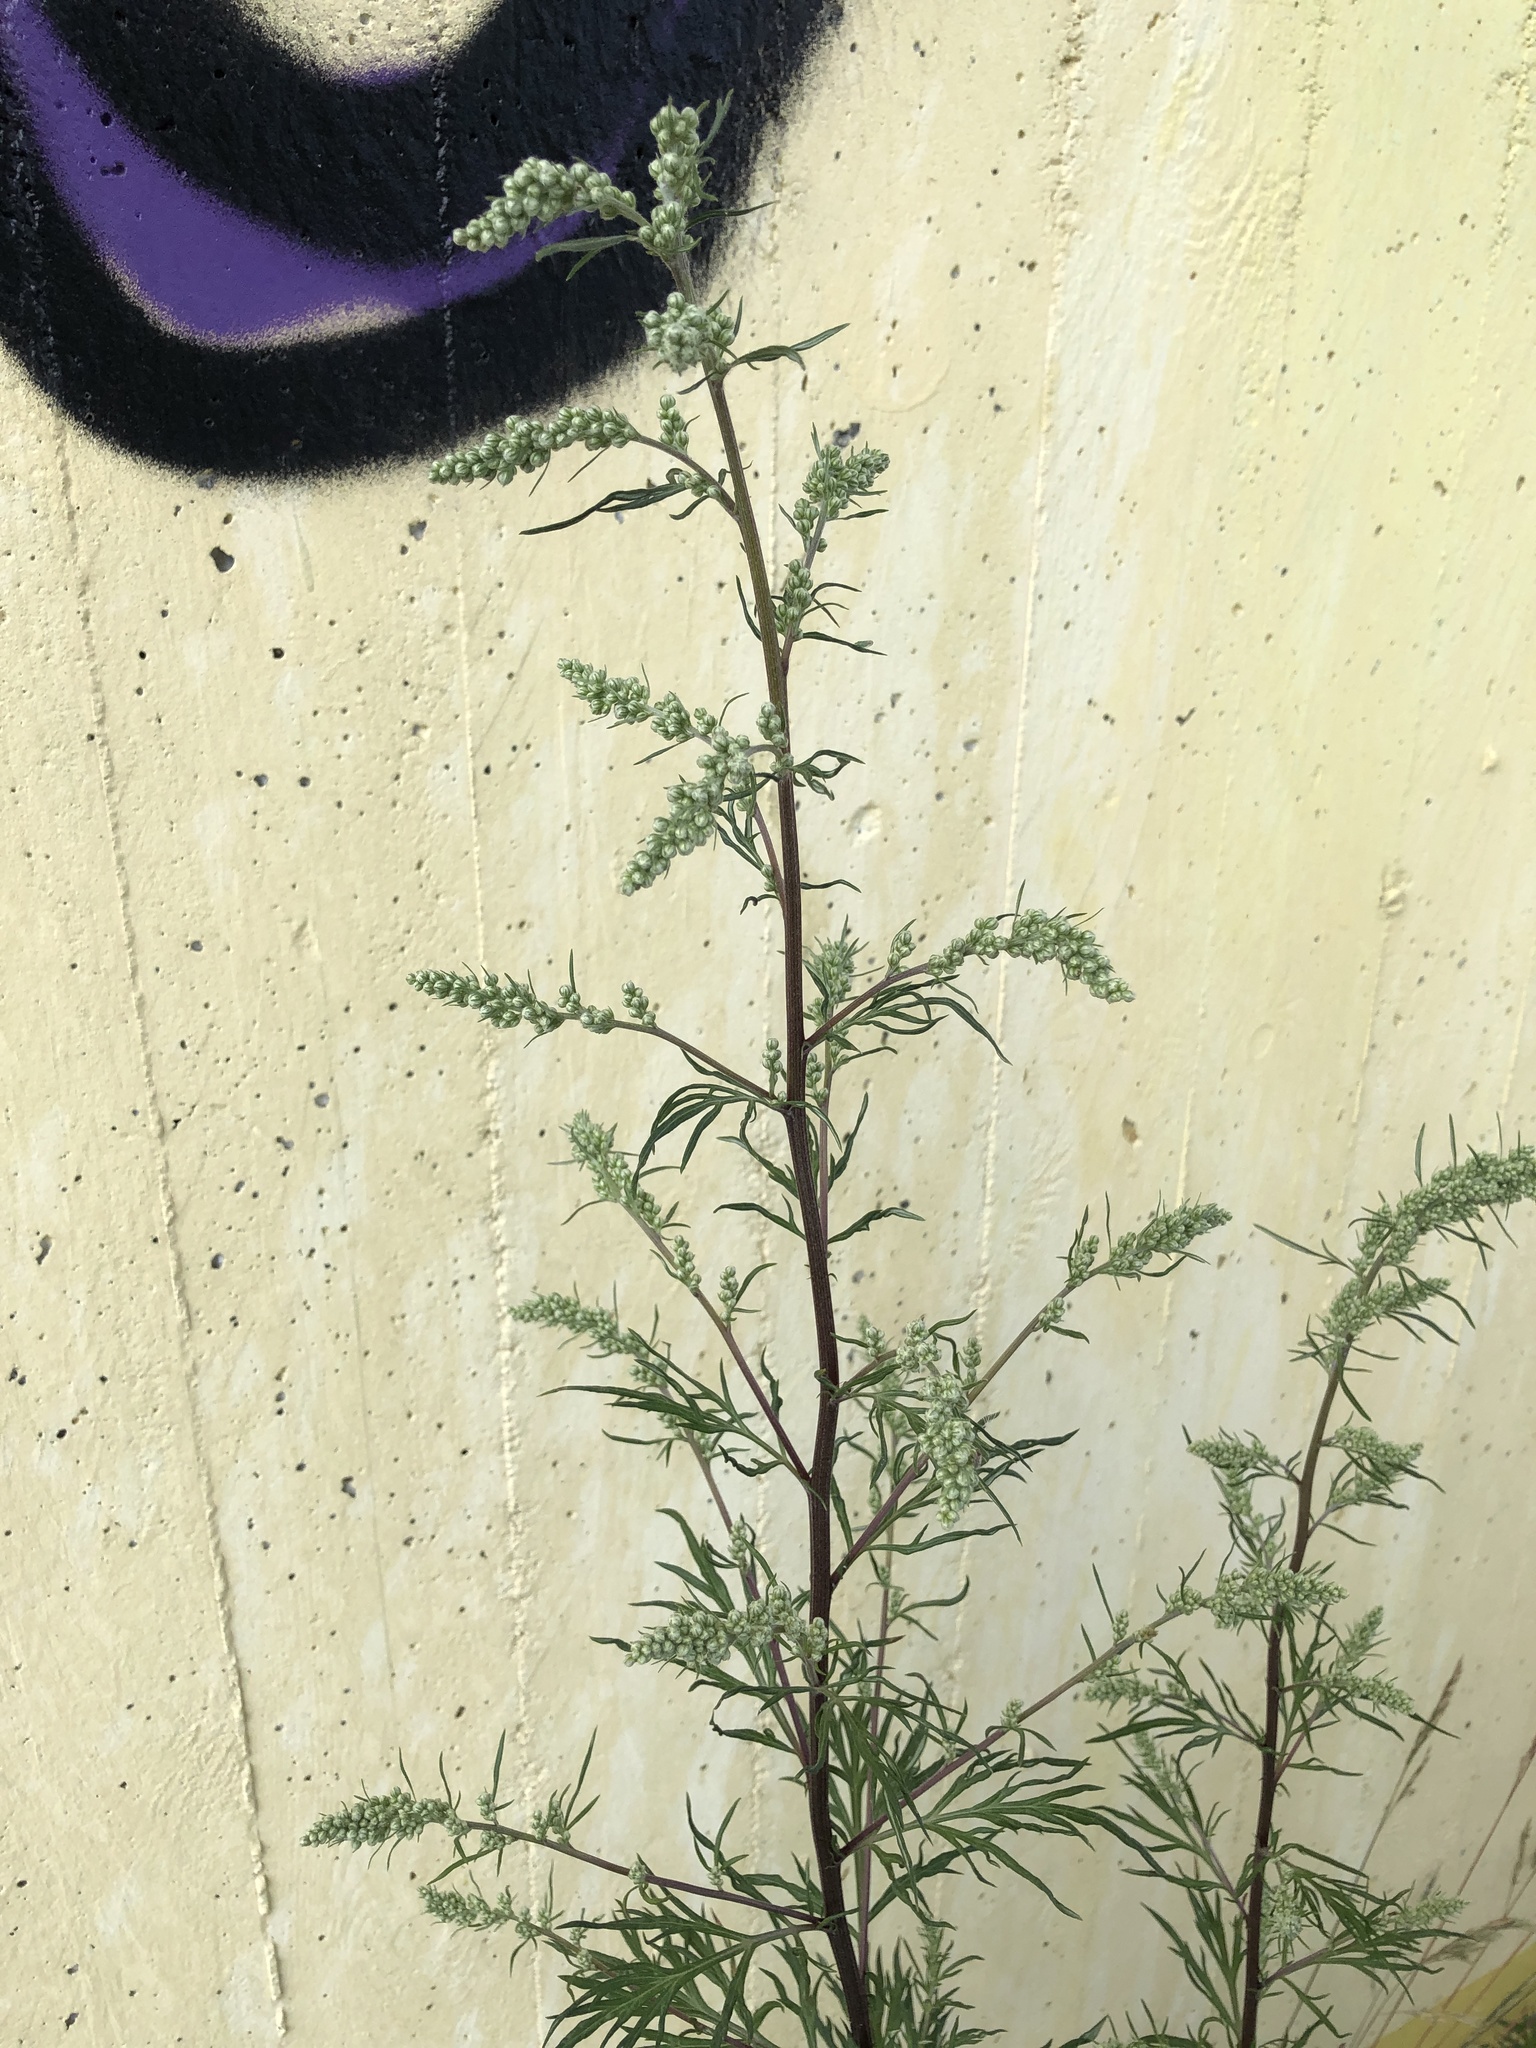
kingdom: Plantae
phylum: Tracheophyta
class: Magnoliopsida
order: Asterales
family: Asteraceae
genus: Artemisia
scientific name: Artemisia vulgaris
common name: Mugwort
